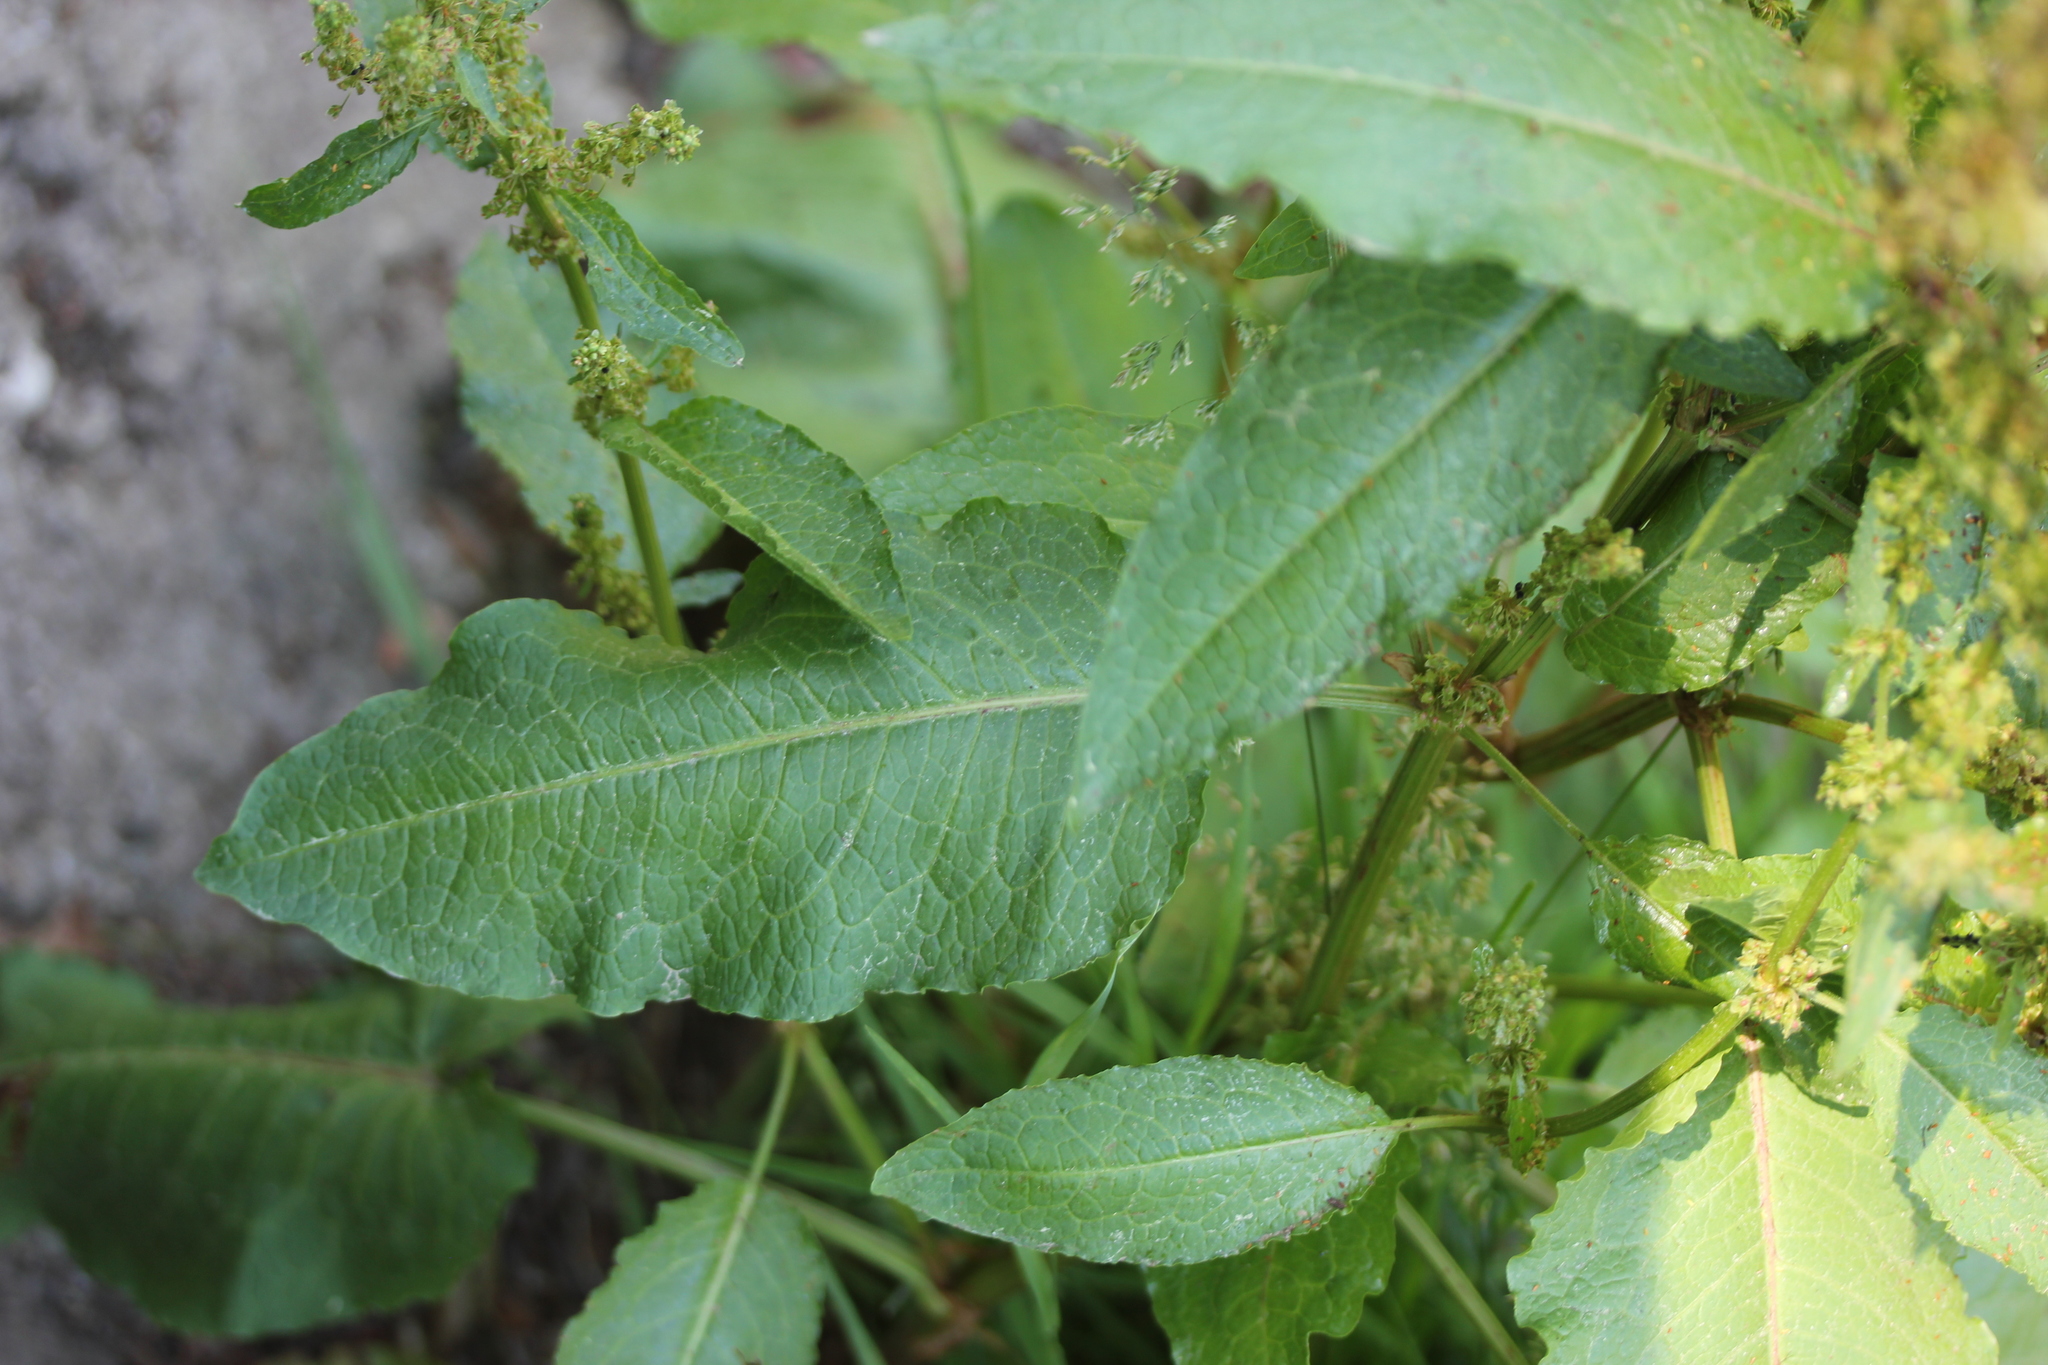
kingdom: Plantae
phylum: Tracheophyta
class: Magnoliopsida
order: Caryophyllales
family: Polygonaceae
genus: Rumex
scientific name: Rumex obtusifolius
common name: Bitter dock
